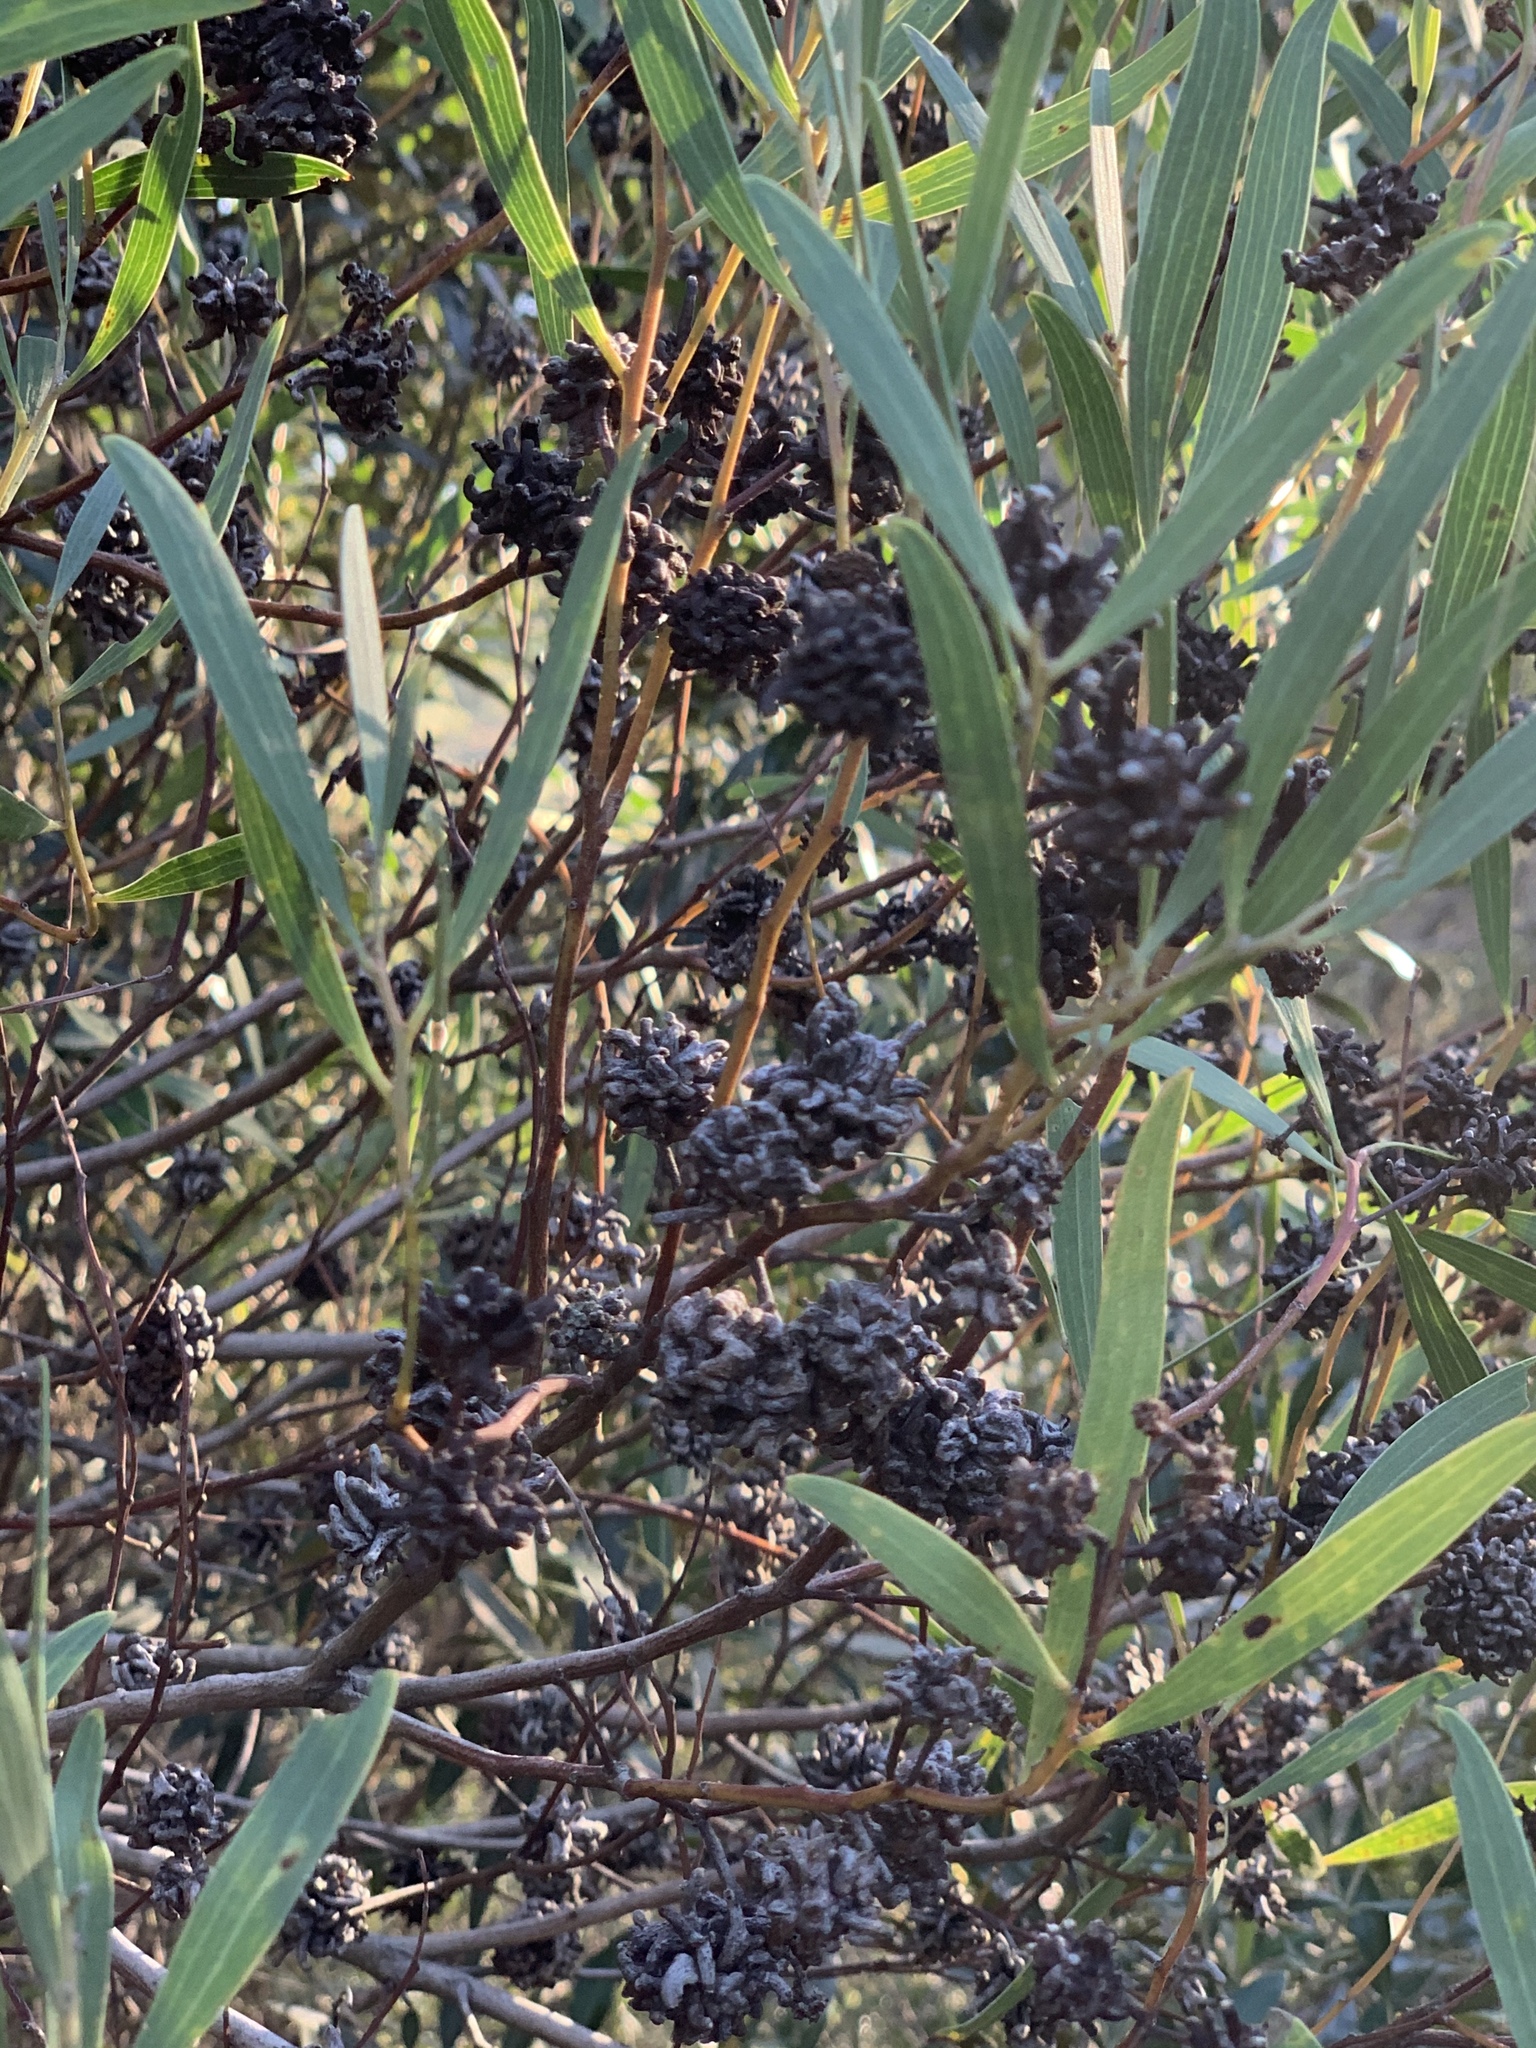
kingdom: Animalia
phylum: Arthropoda
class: Insecta
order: Diptera
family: Cecidomyiidae
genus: Dasineura
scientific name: Dasineura dielsi
